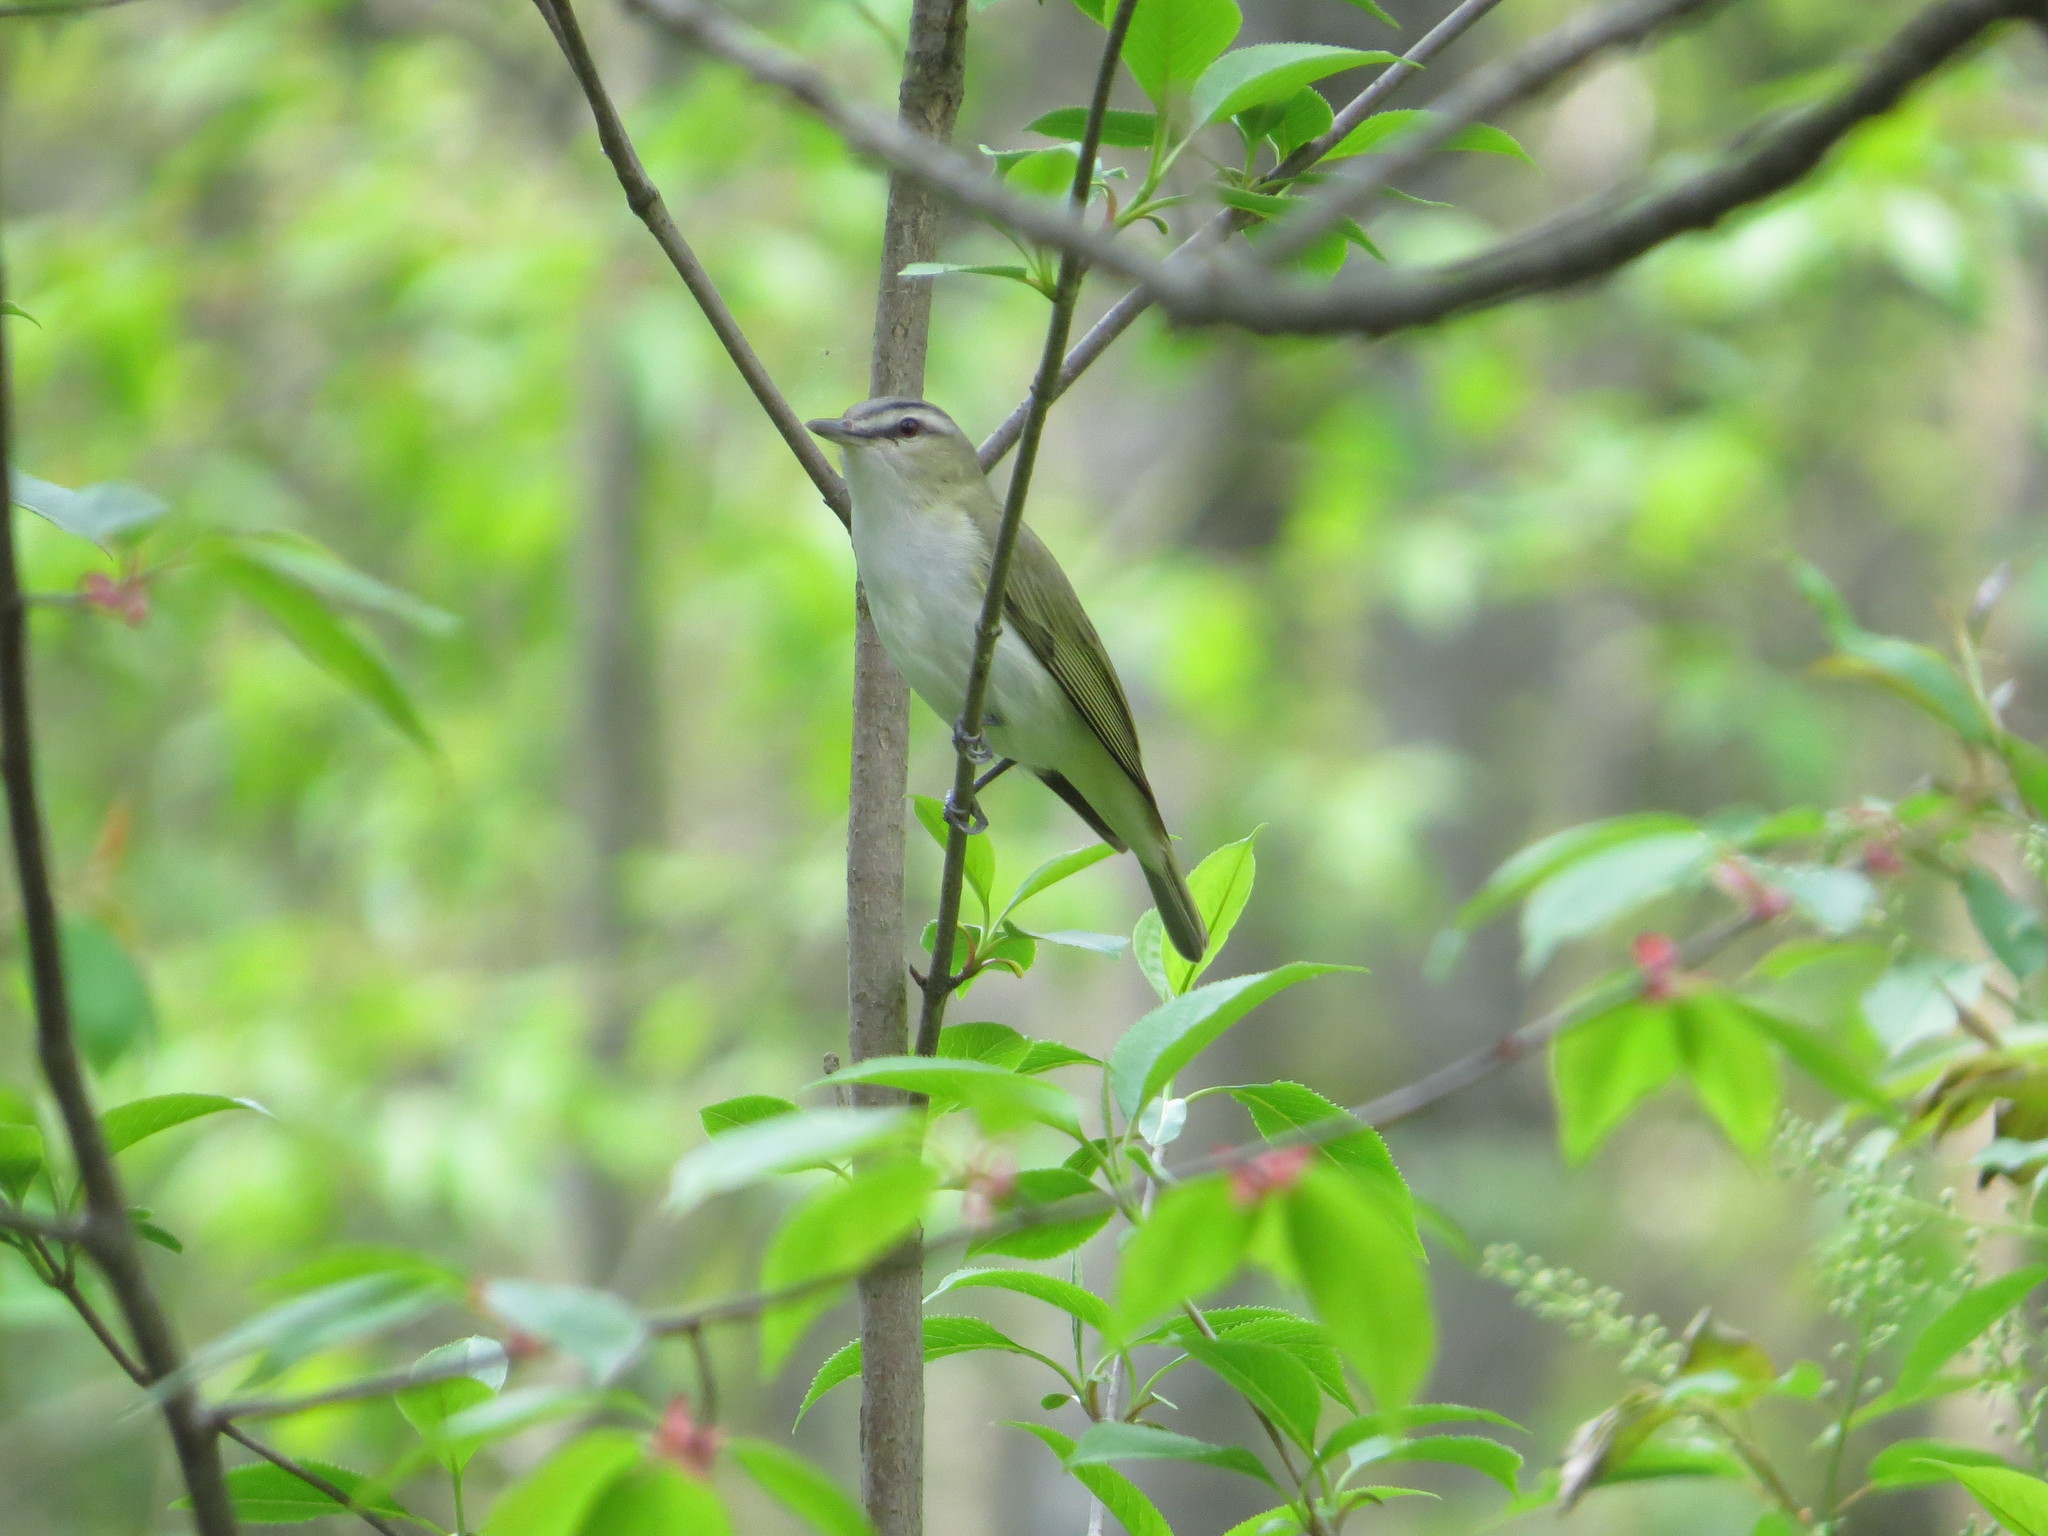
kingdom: Animalia
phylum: Chordata
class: Aves
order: Passeriformes
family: Vireonidae
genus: Vireo
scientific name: Vireo olivaceus
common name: Red-eyed vireo
